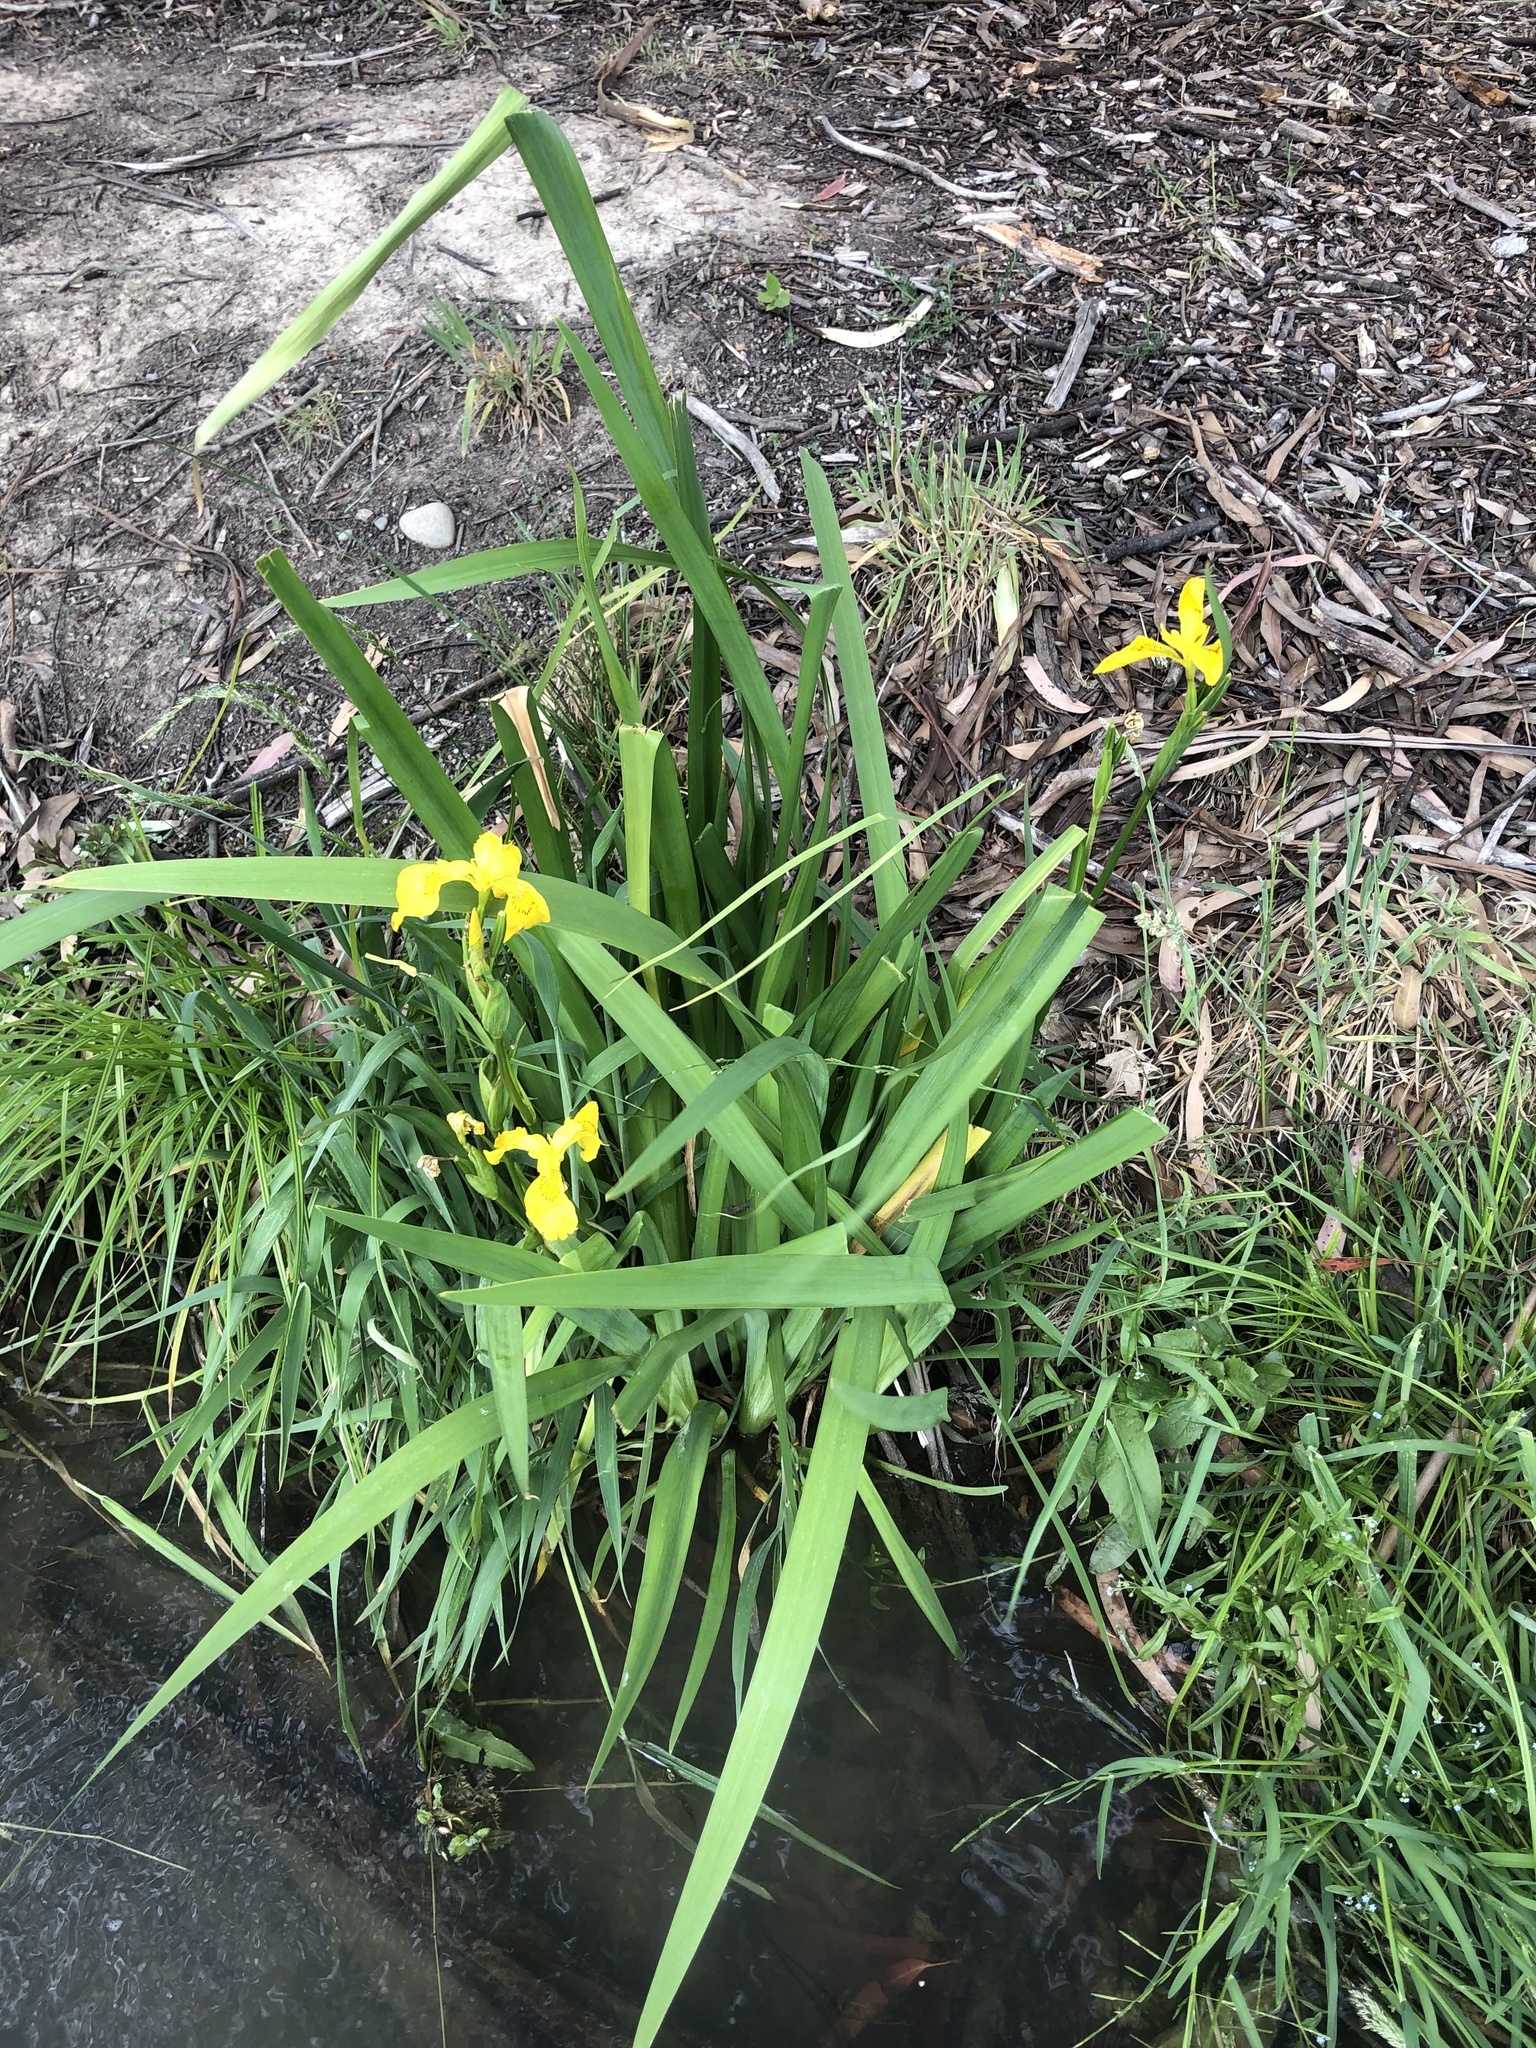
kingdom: Plantae
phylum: Tracheophyta
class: Liliopsida
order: Asparagales
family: Iridaceae
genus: Iris
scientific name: Iris pseudacorus
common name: Yellow flag
